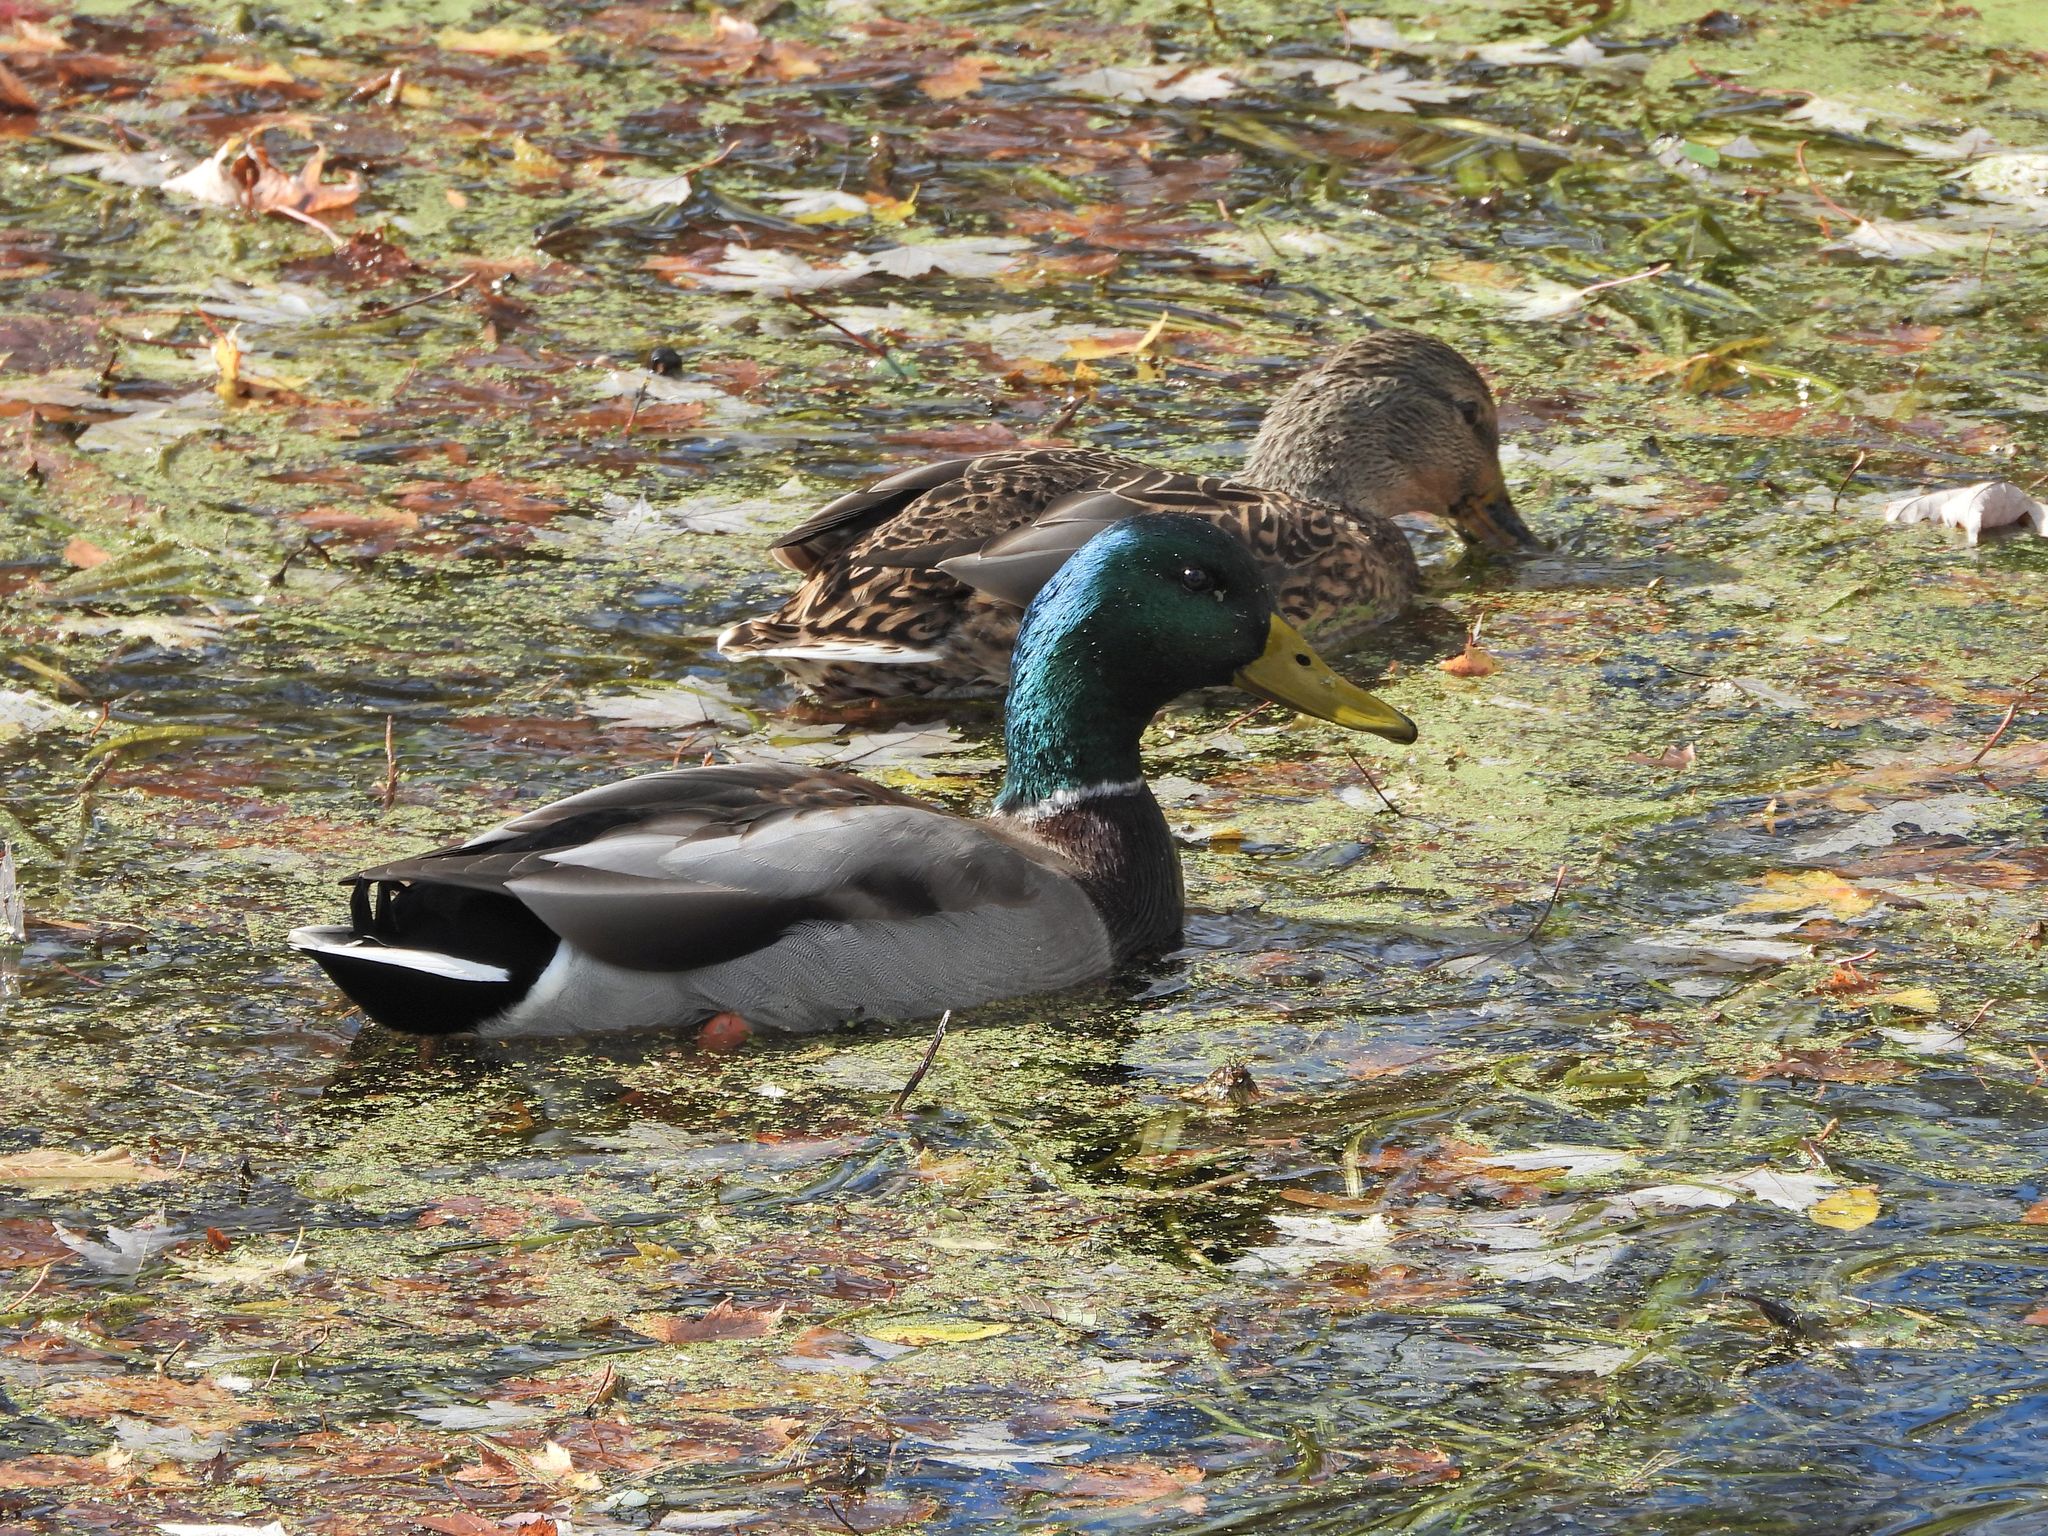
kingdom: Animalia
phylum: Chordata
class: Aves
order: Anseriformes
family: Anatidae
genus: Anas
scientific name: Anas platyrhynchos
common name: Mallard
